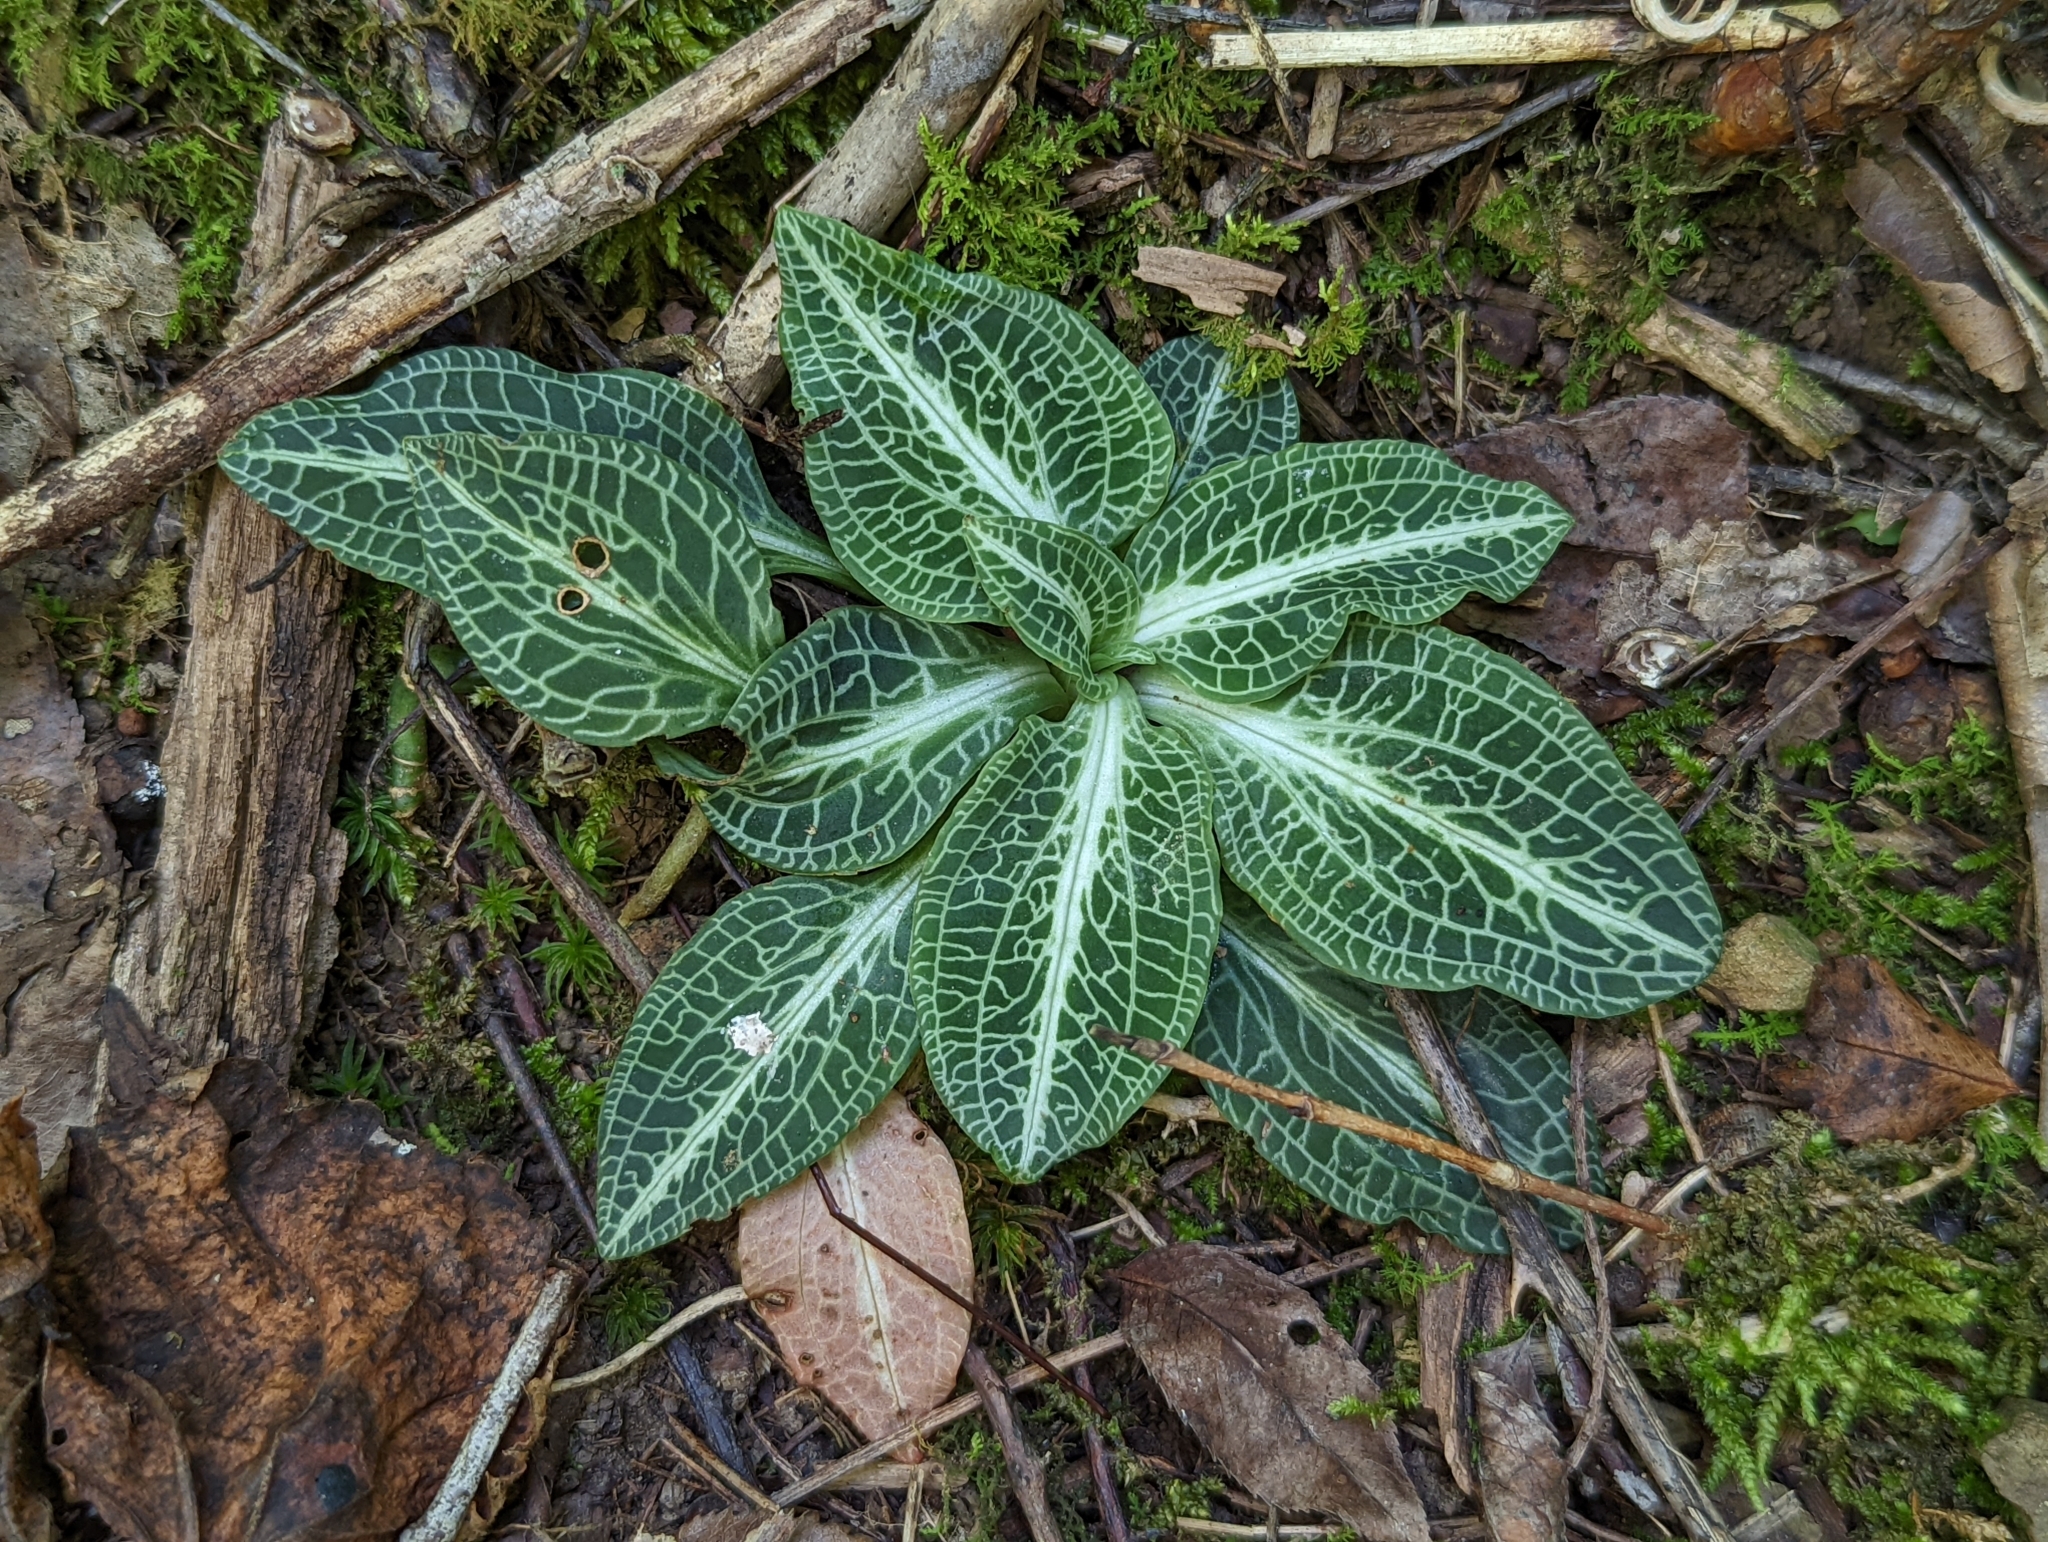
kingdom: Plantae
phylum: Tracheophyta
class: Liliopsida
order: Asparagales
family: Orchidaceae
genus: Goodyera
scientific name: Goodyera pubescens
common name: Downy rattlesnake-plantain
